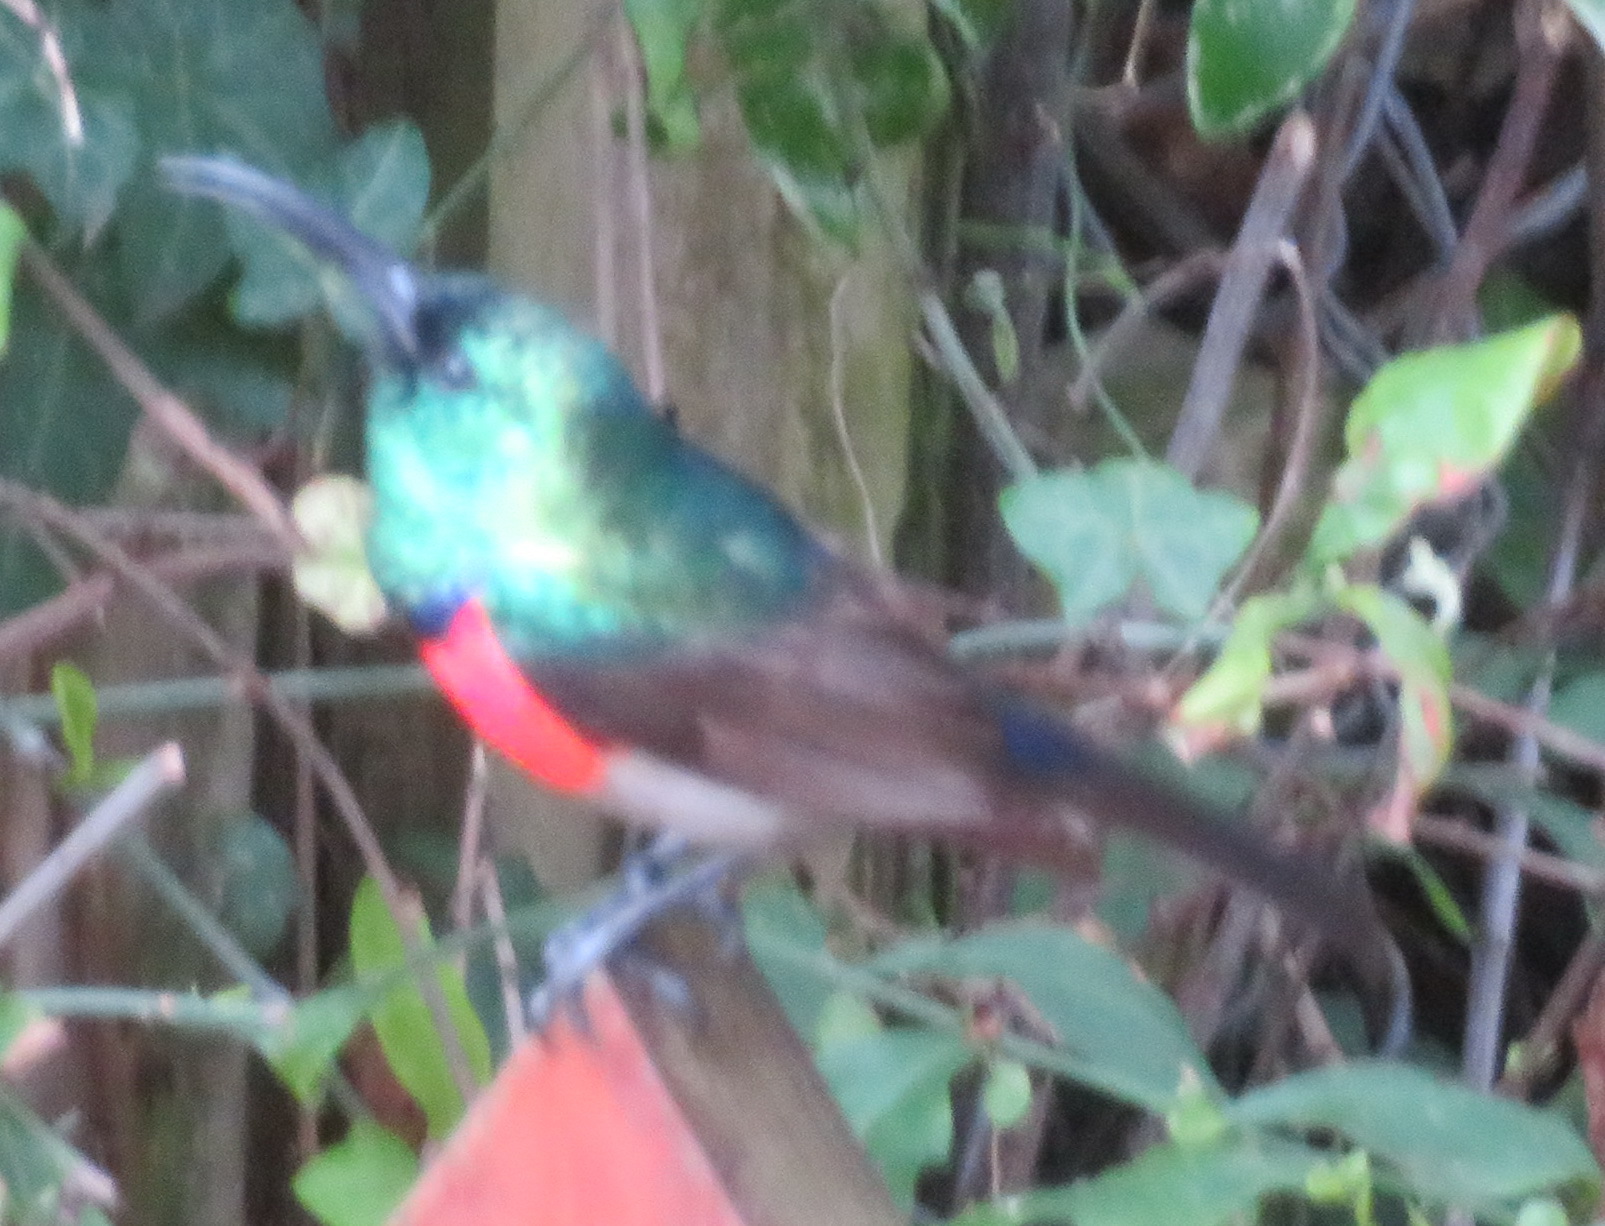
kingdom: Animalia
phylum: Chordata
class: Aves
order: Passeriformes
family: Nectariniidae
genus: Cinnyris
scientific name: Cinnyris afer
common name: Greater double-collared sunbird
